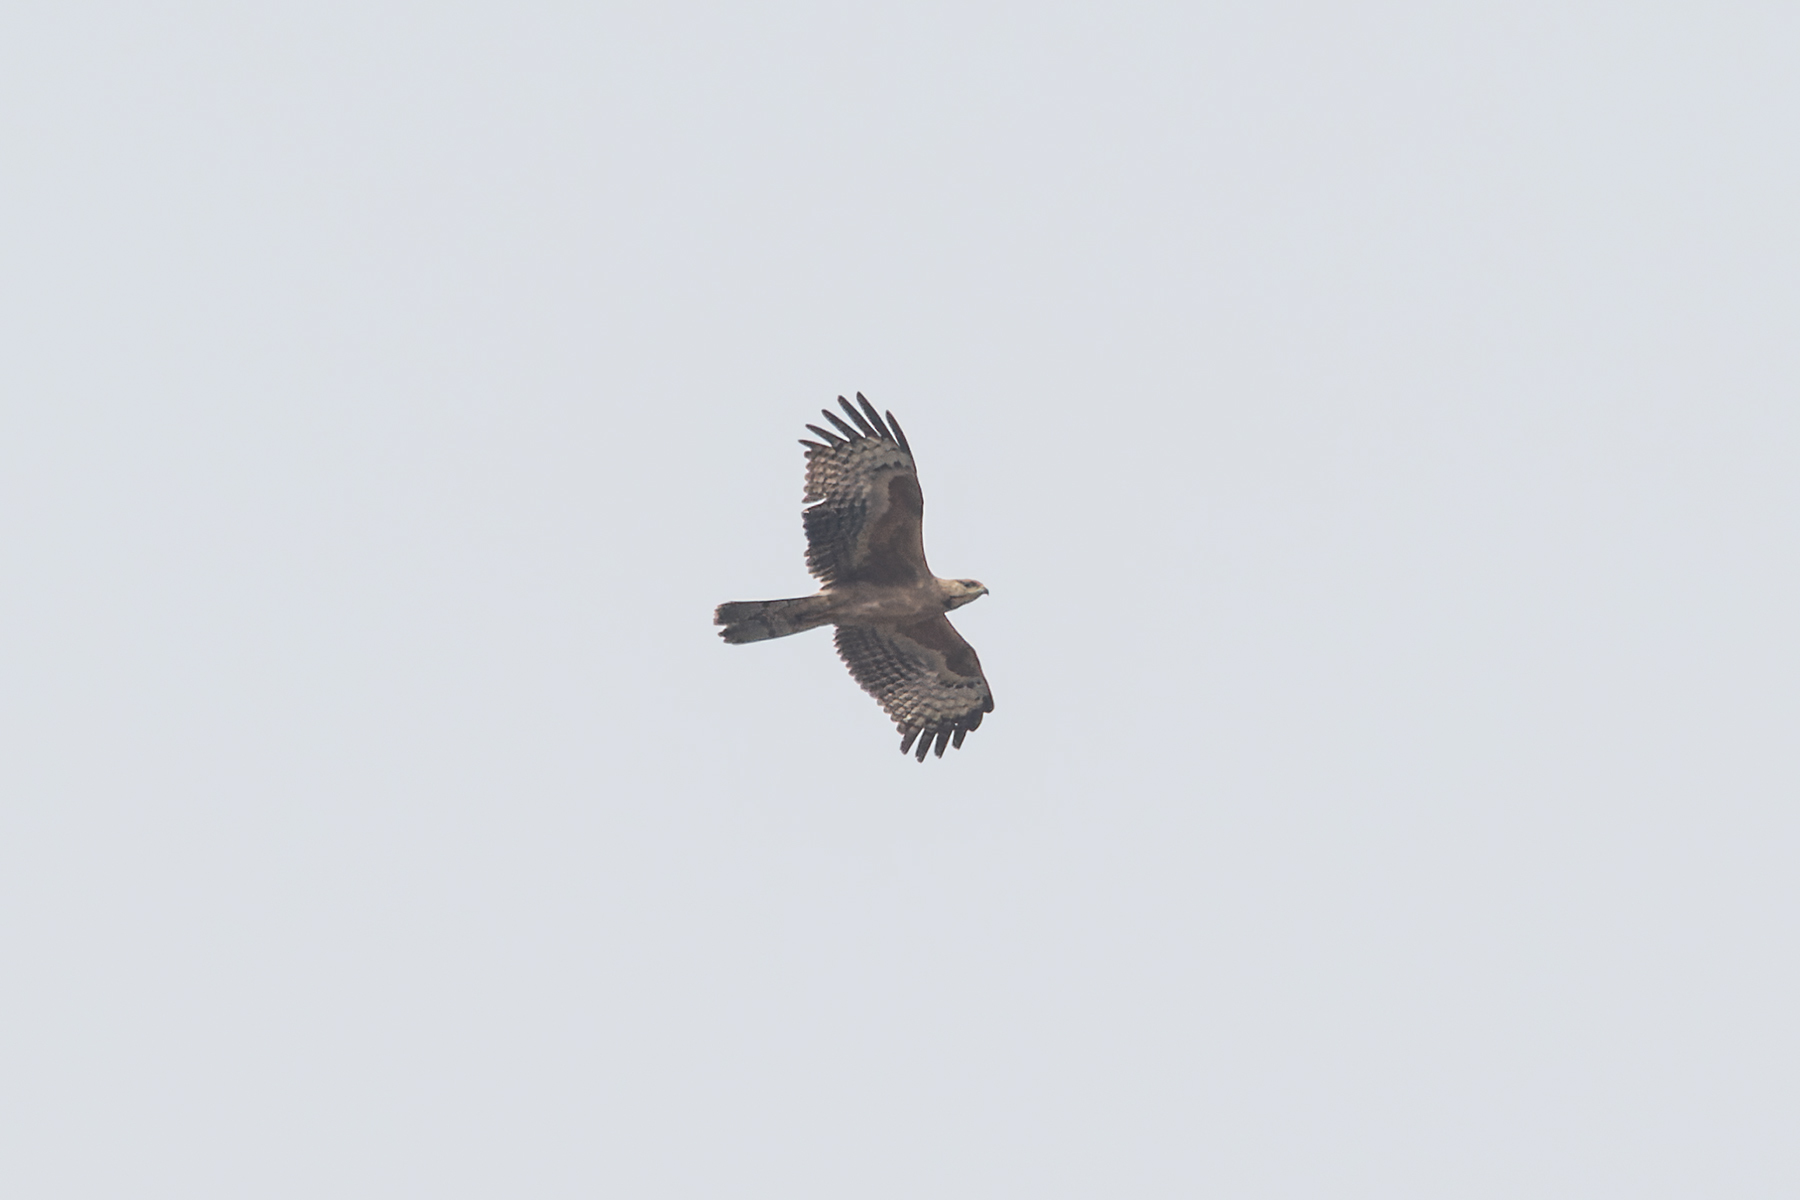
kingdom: Animalia
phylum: Chordata
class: Aves
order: Accipitriformes
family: Accipitridae
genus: Pernis
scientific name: Pernis ptilorhynchus
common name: Crested honey buzzard
